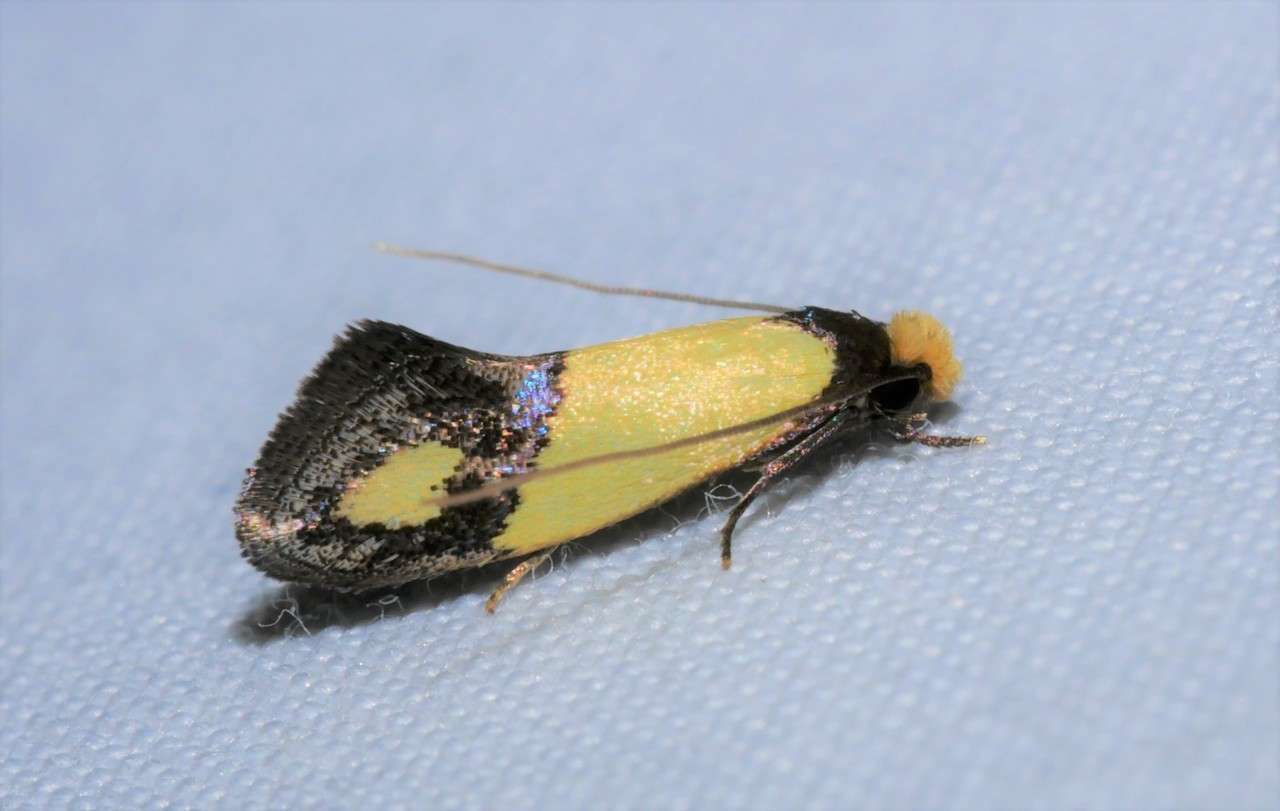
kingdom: Animalia
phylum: Arthropoda
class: Insecta
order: Lepidoptera
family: Tineidae
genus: Edosa
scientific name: Edosa fraudulens
